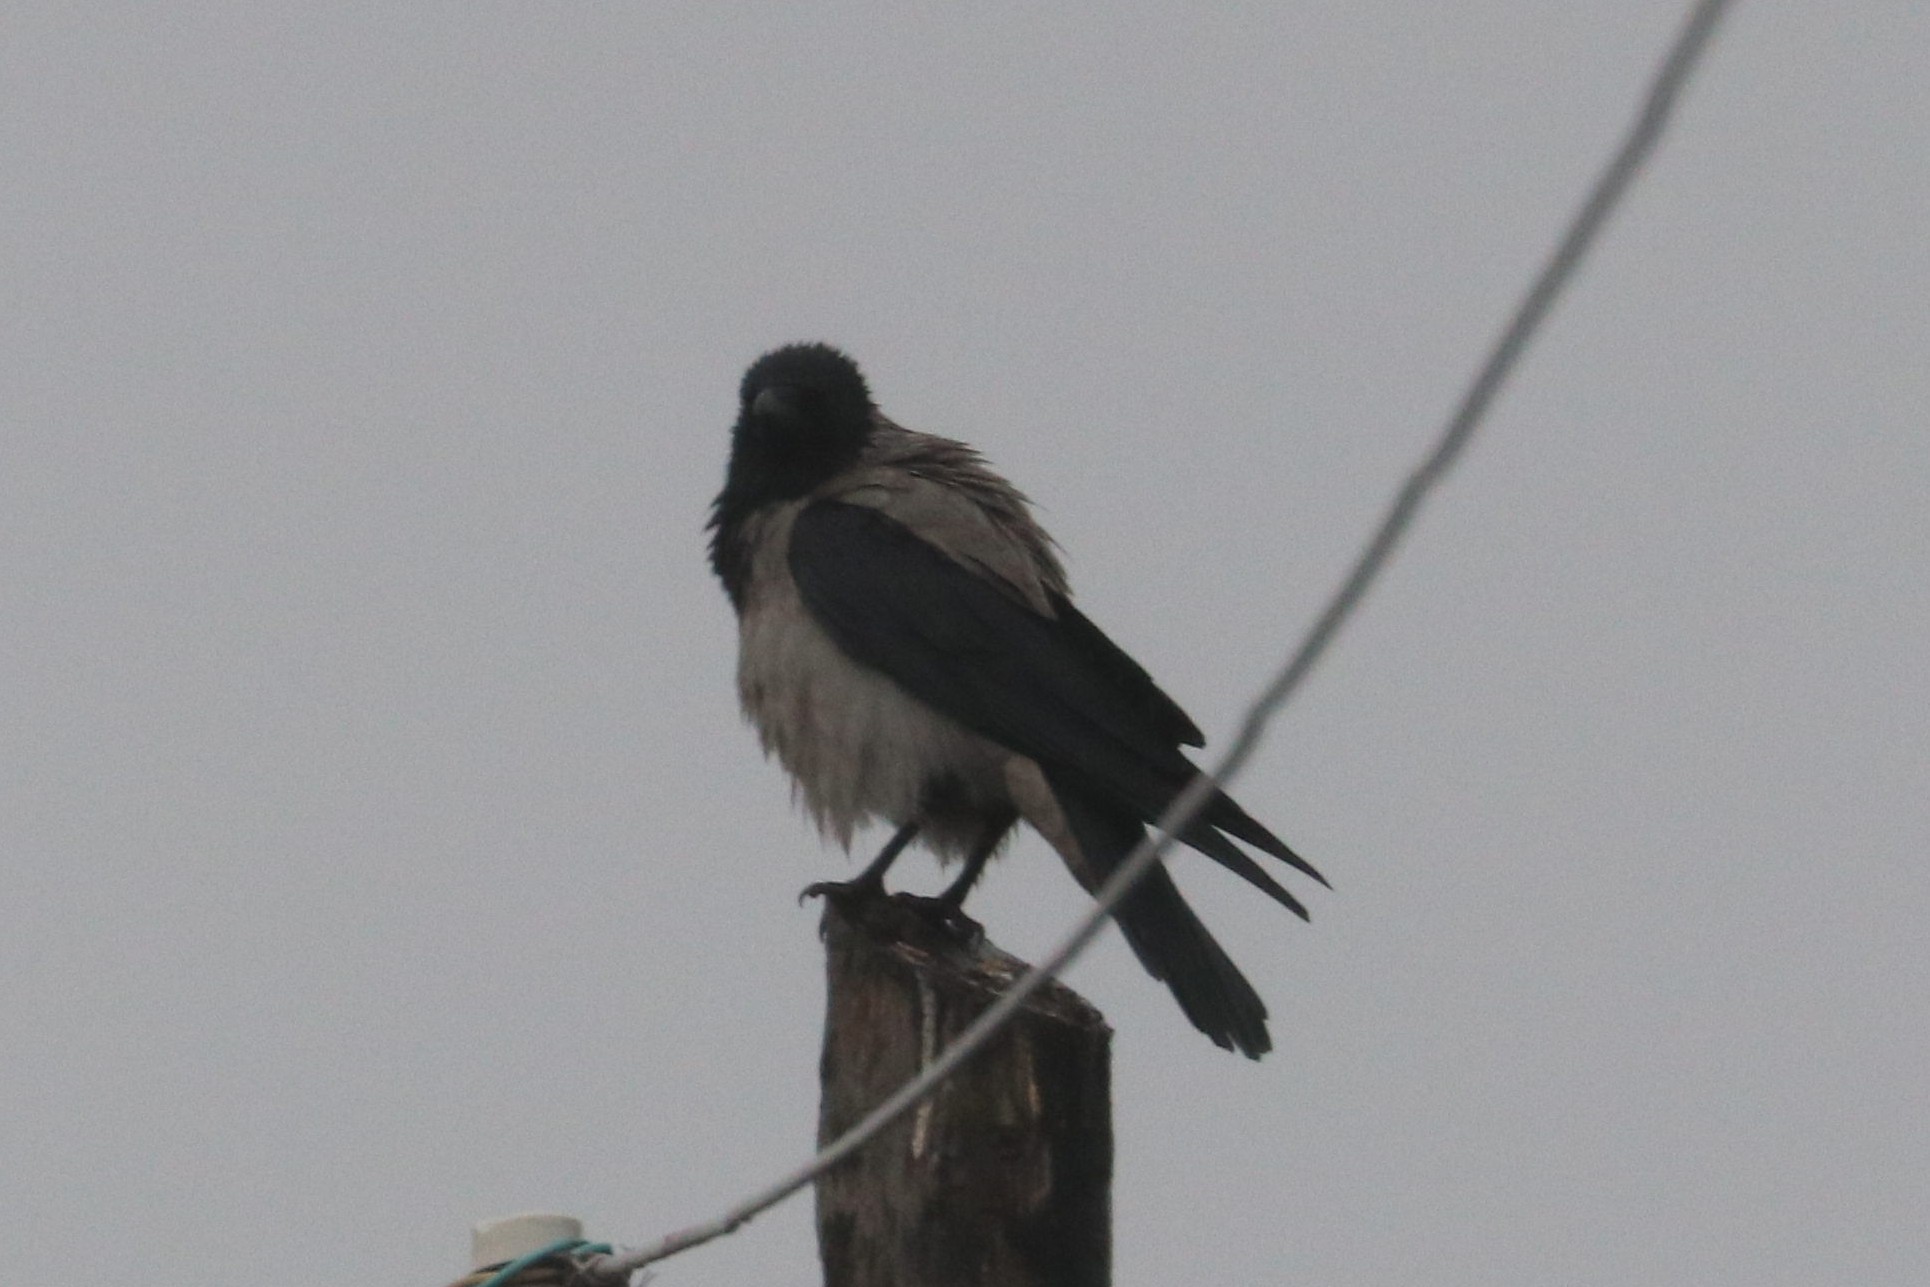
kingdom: Animalia
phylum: Chordata
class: Aves
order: Passeriformes
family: Corvidae
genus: Corvus
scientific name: Corvus cornix
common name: Hooded crow
